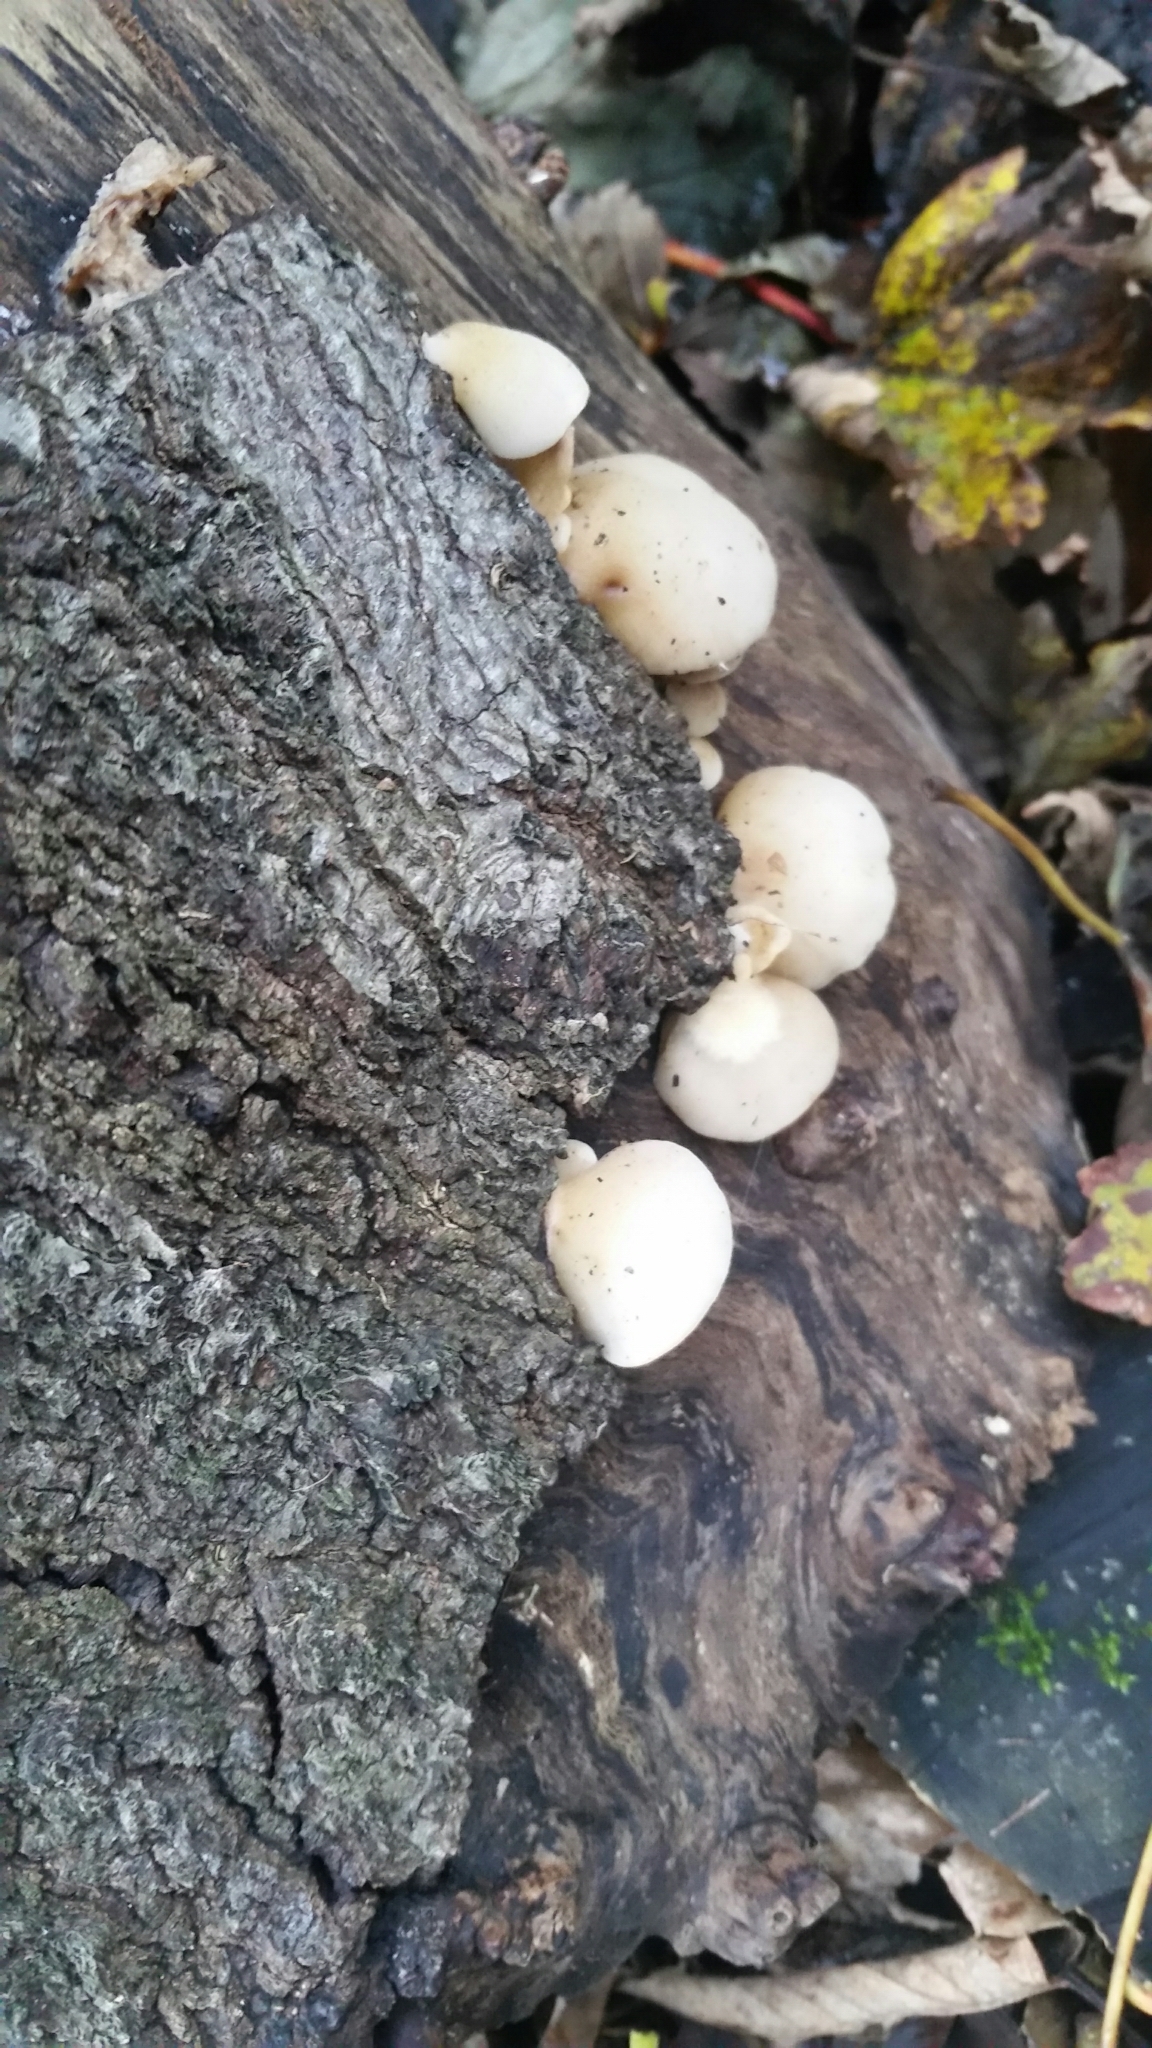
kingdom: Fungi
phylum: Basidiomycota
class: Agaricomycetes
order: Agaricales
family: Crepidotaceae
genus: Crepidotus
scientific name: Crepidotus mollis
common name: Peeling oysterling
